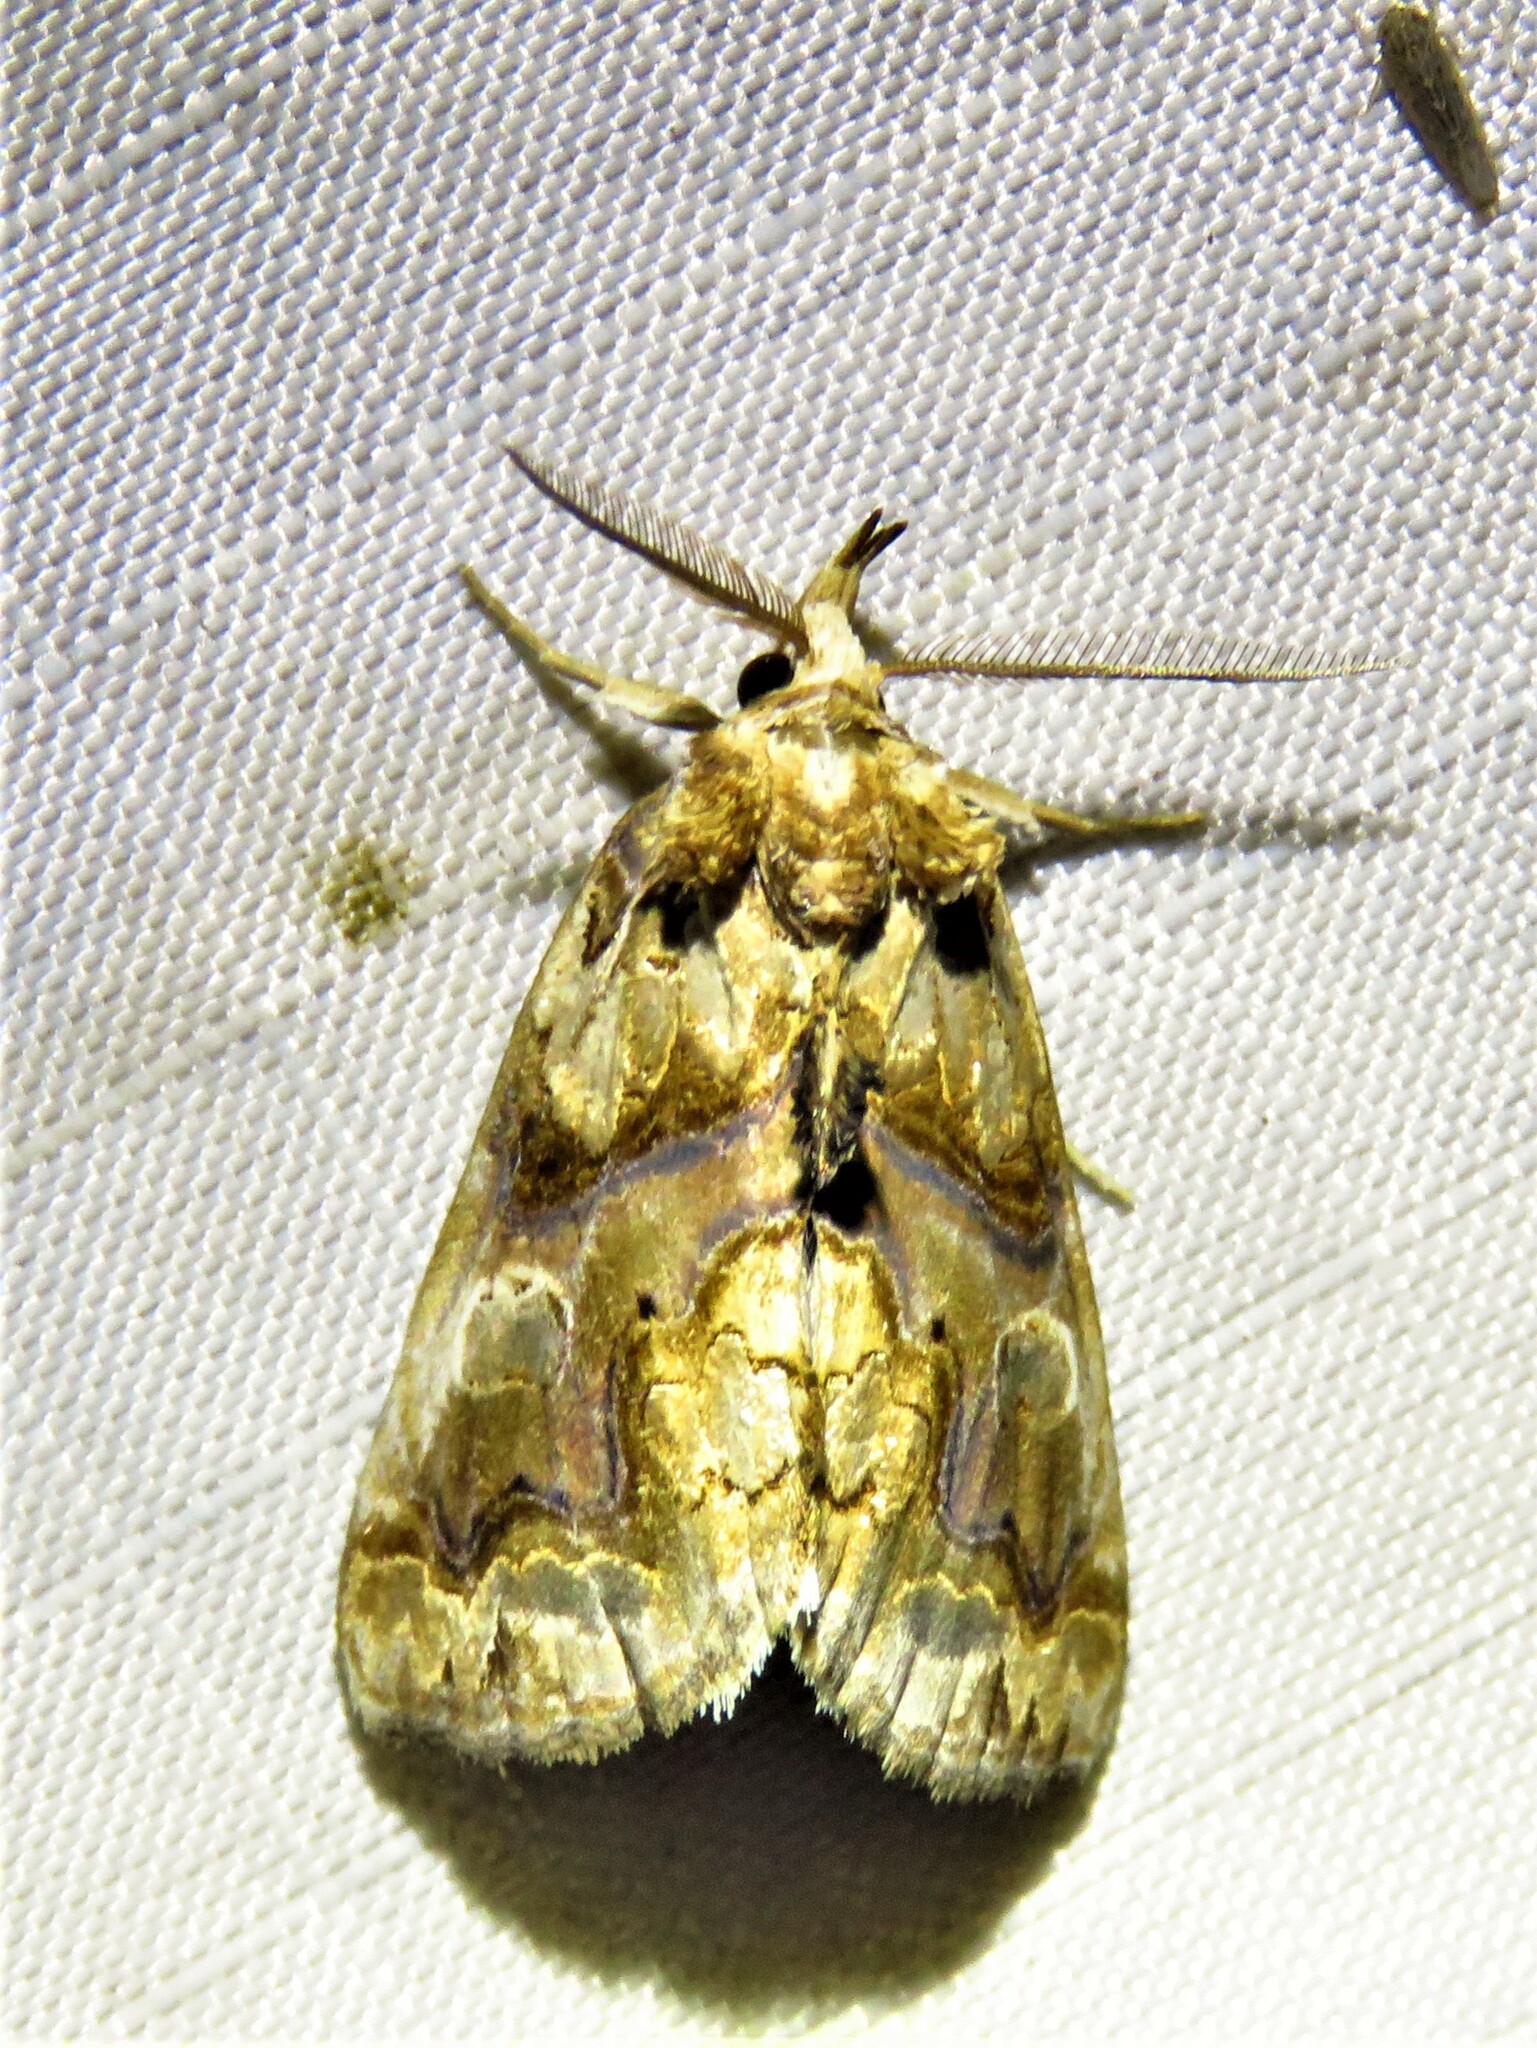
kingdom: Animalia
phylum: Arthropoda
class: Insecta
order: Lepidoptera
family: Erebidae
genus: Plusiodonta
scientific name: Plusiodonta compressipalpis
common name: Moonseed moth
